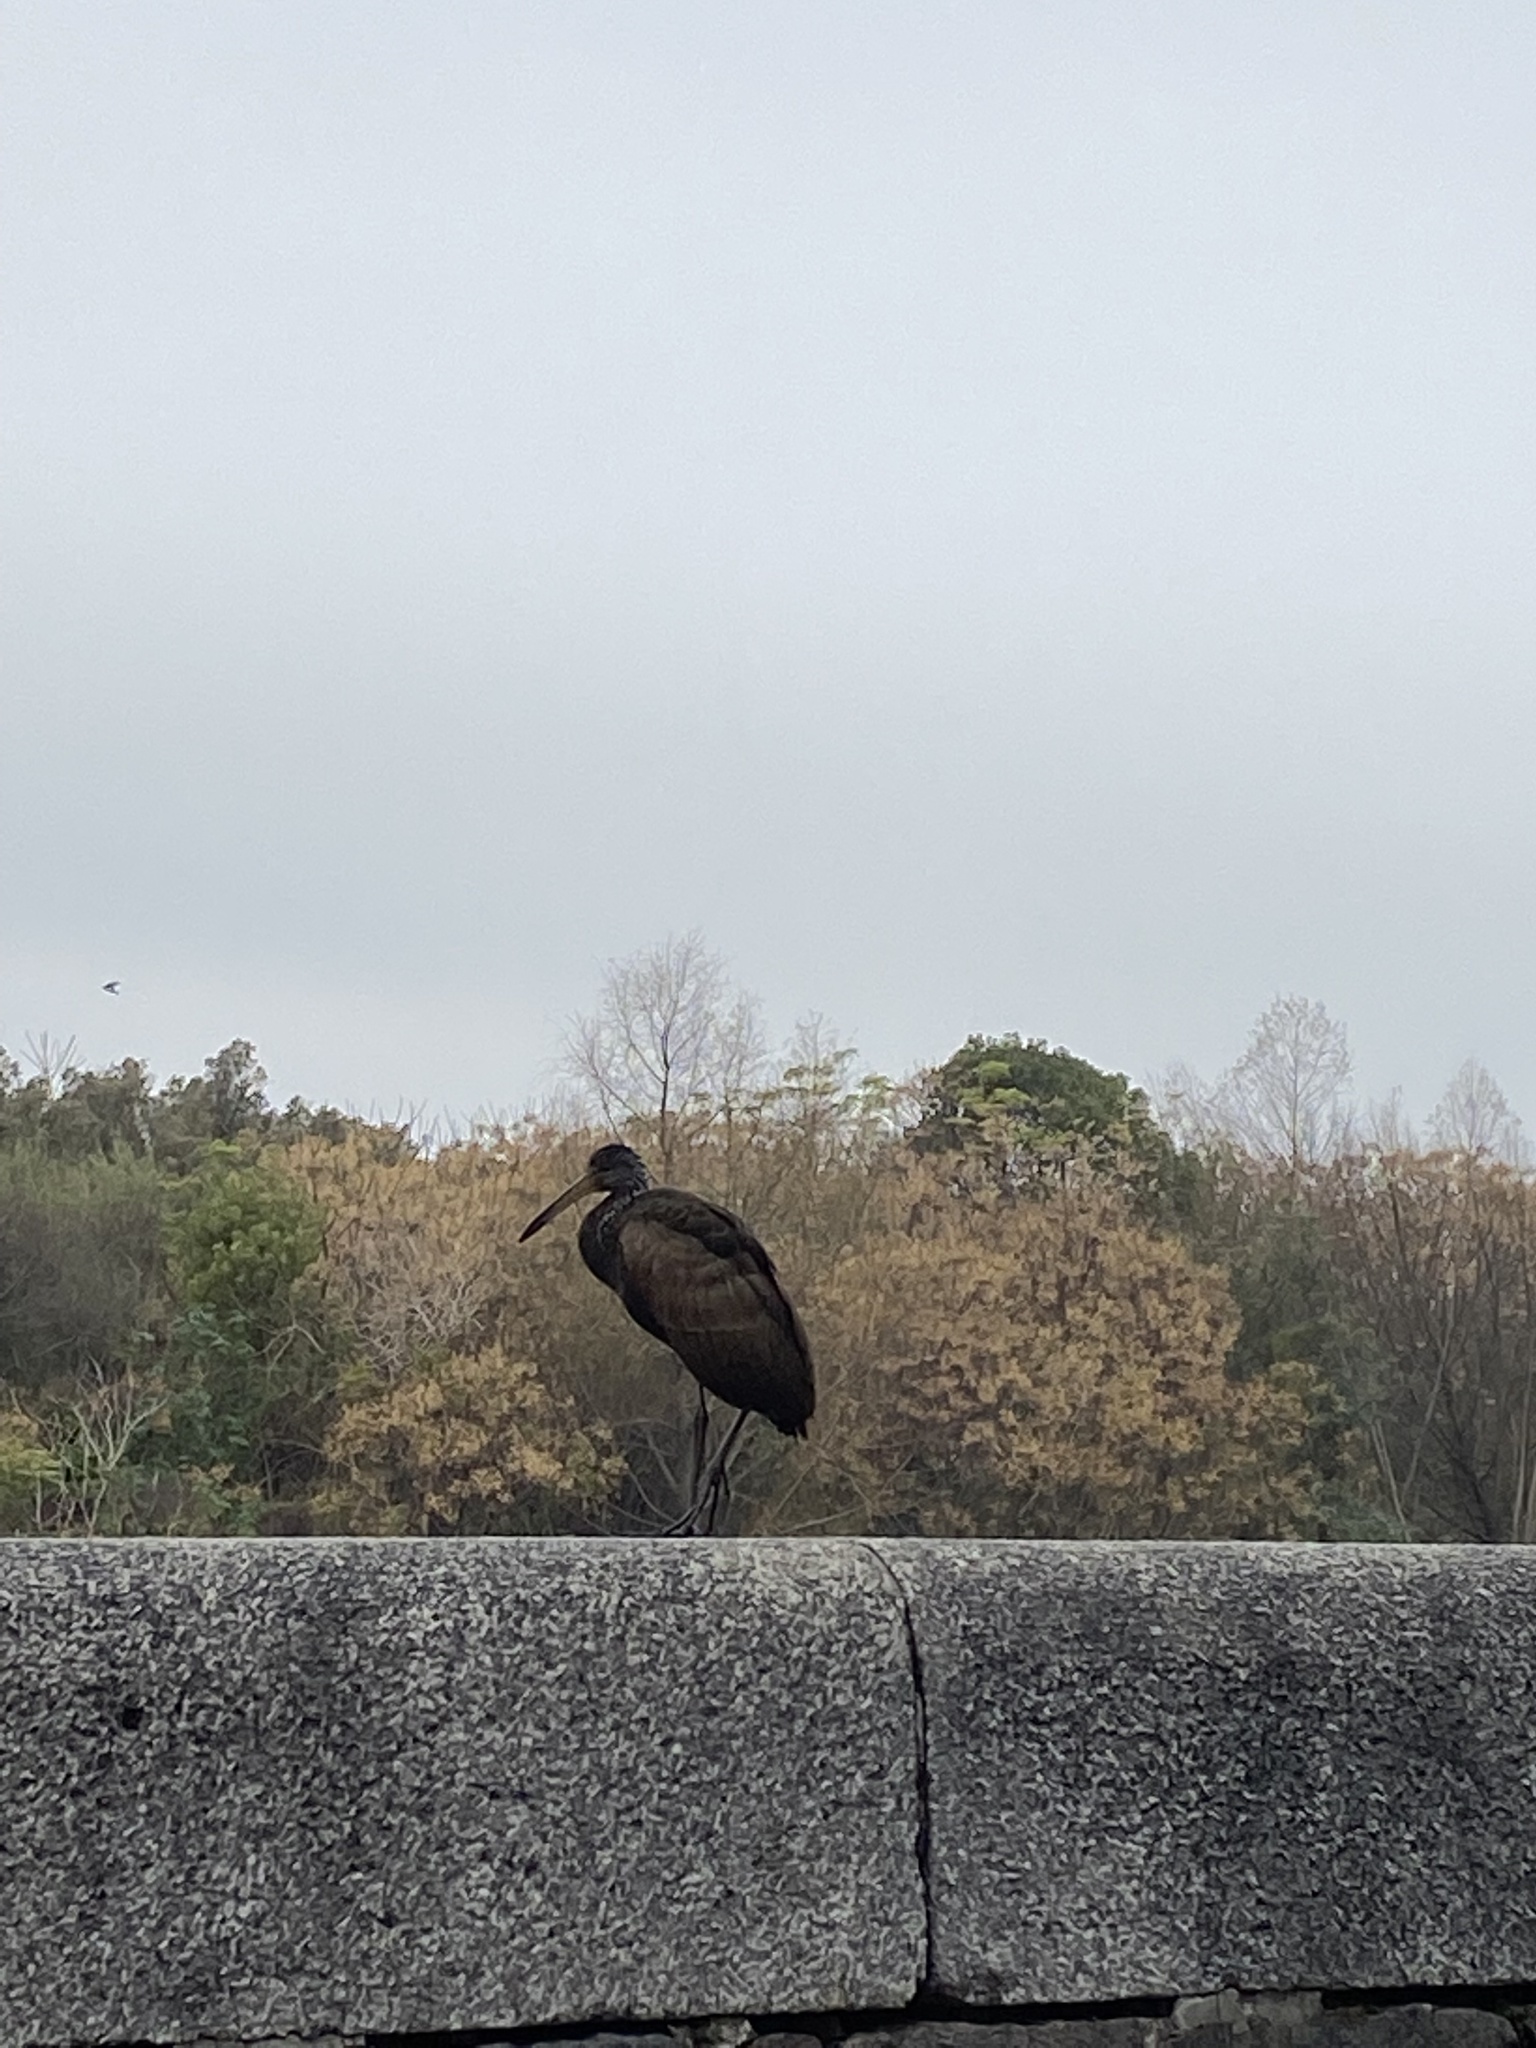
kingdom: Animalia
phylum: Chordata
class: Aves
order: Gruiformes
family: Aramidae
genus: Aramus
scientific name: Aramus guarauna
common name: Limpkin
